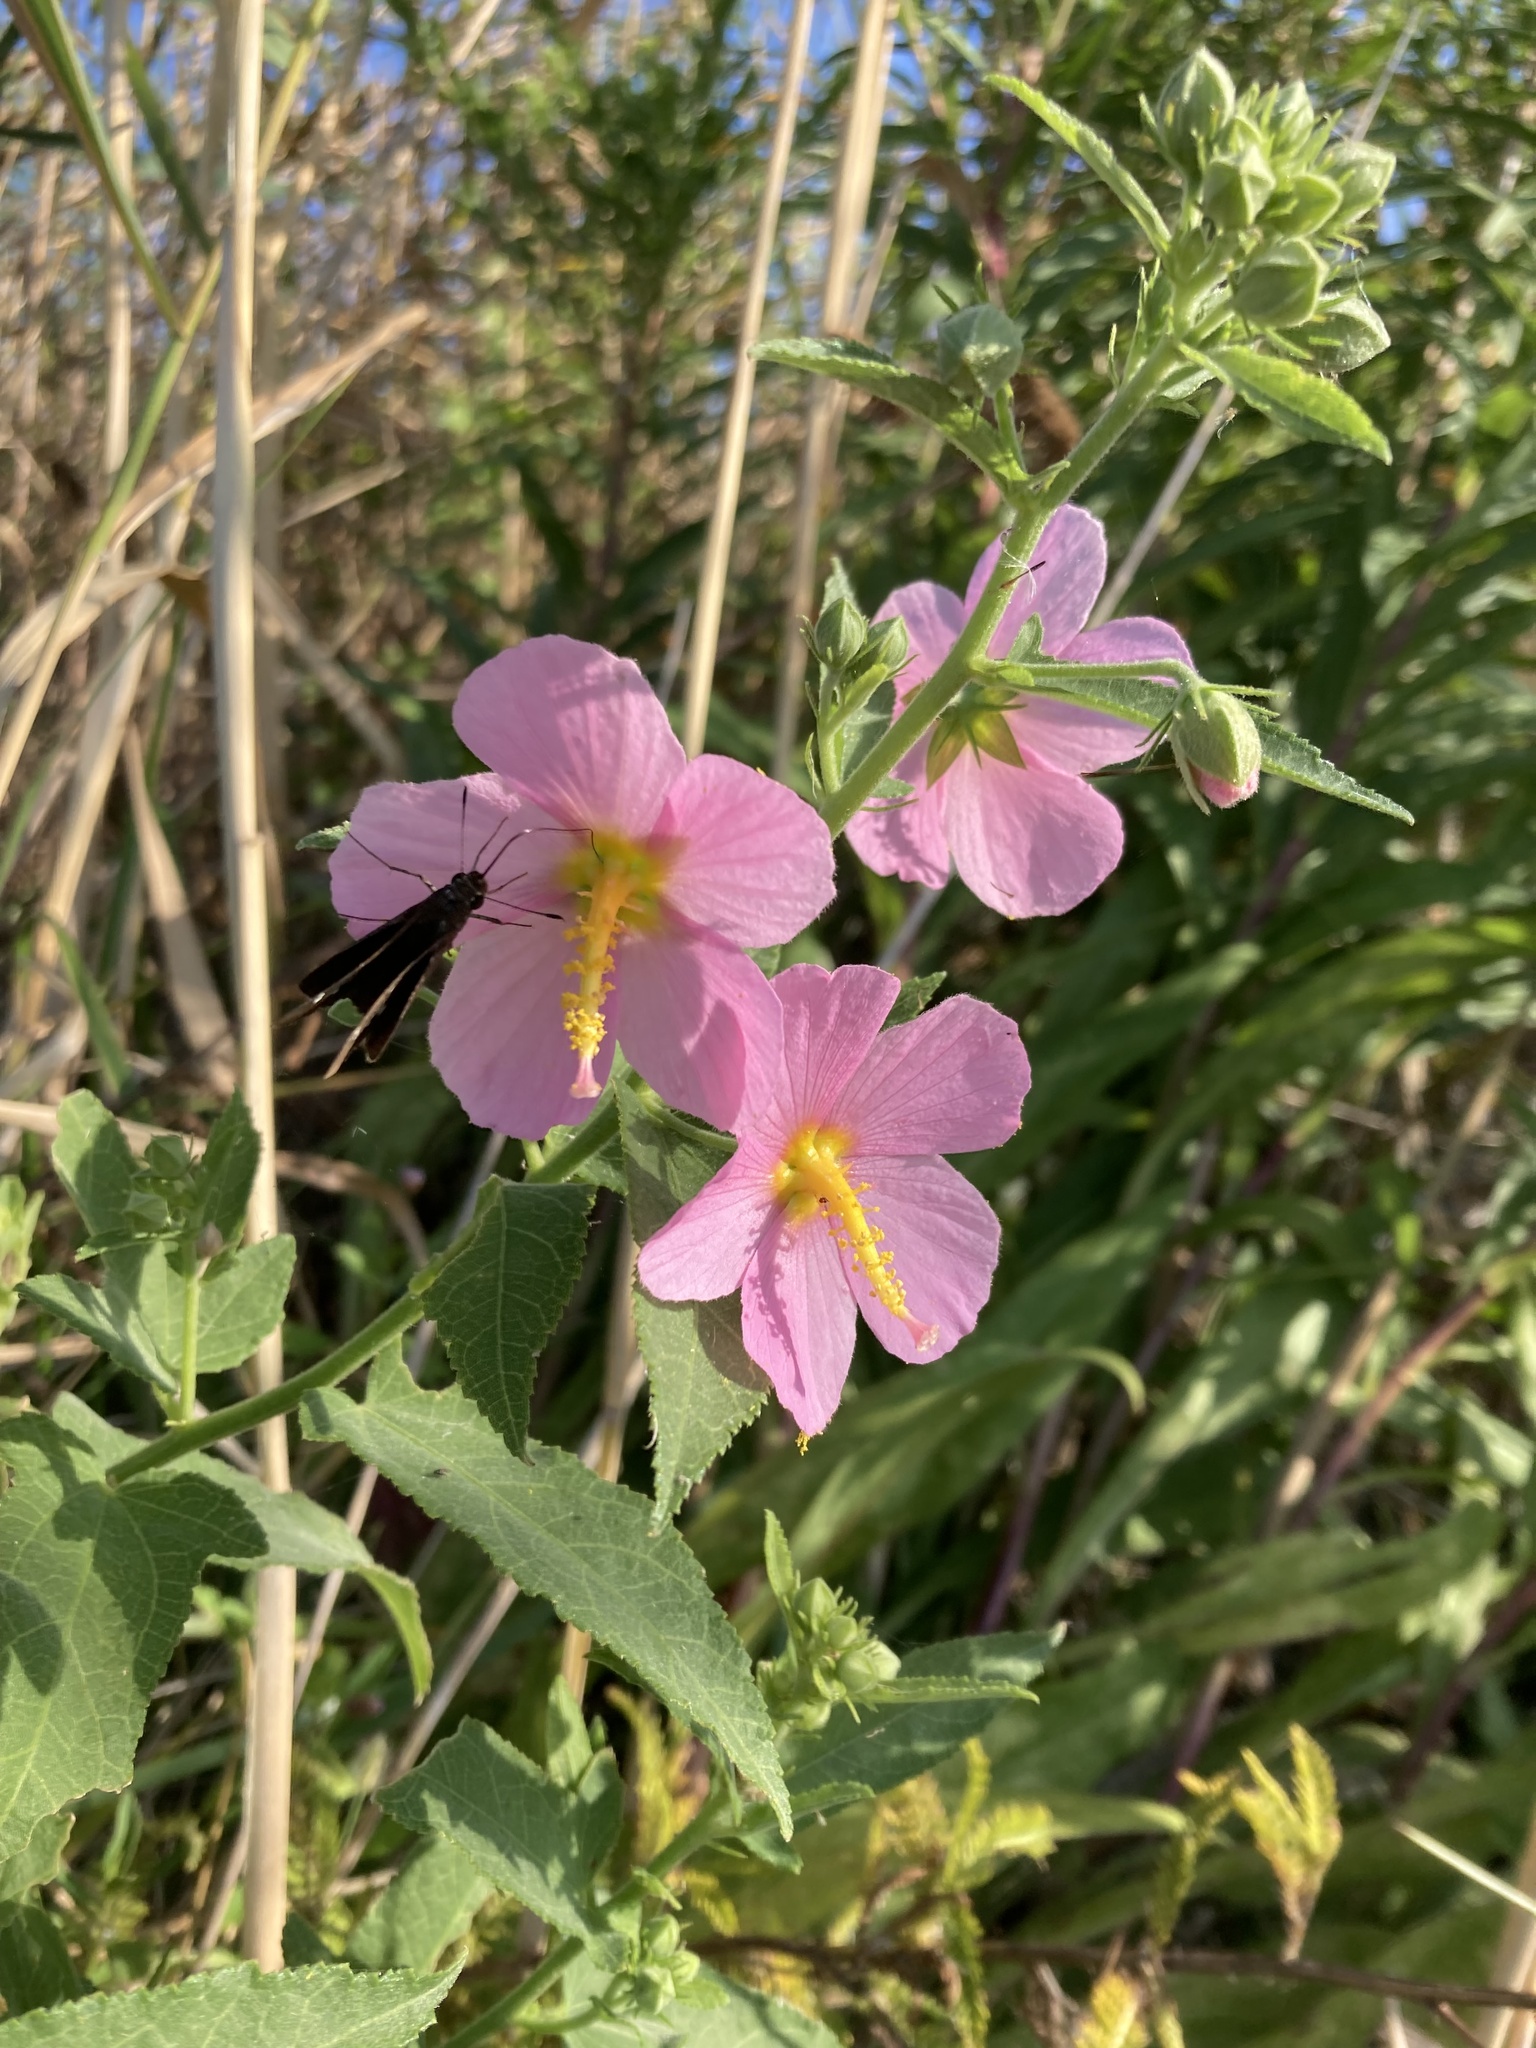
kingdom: Plantae
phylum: Tracheophyta
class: Magnoliopsida
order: Malvales
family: Malvaceae
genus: Kosteletzkya
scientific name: Kosteletzkya pentacarpos
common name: Virginia saltmarsh mallow
